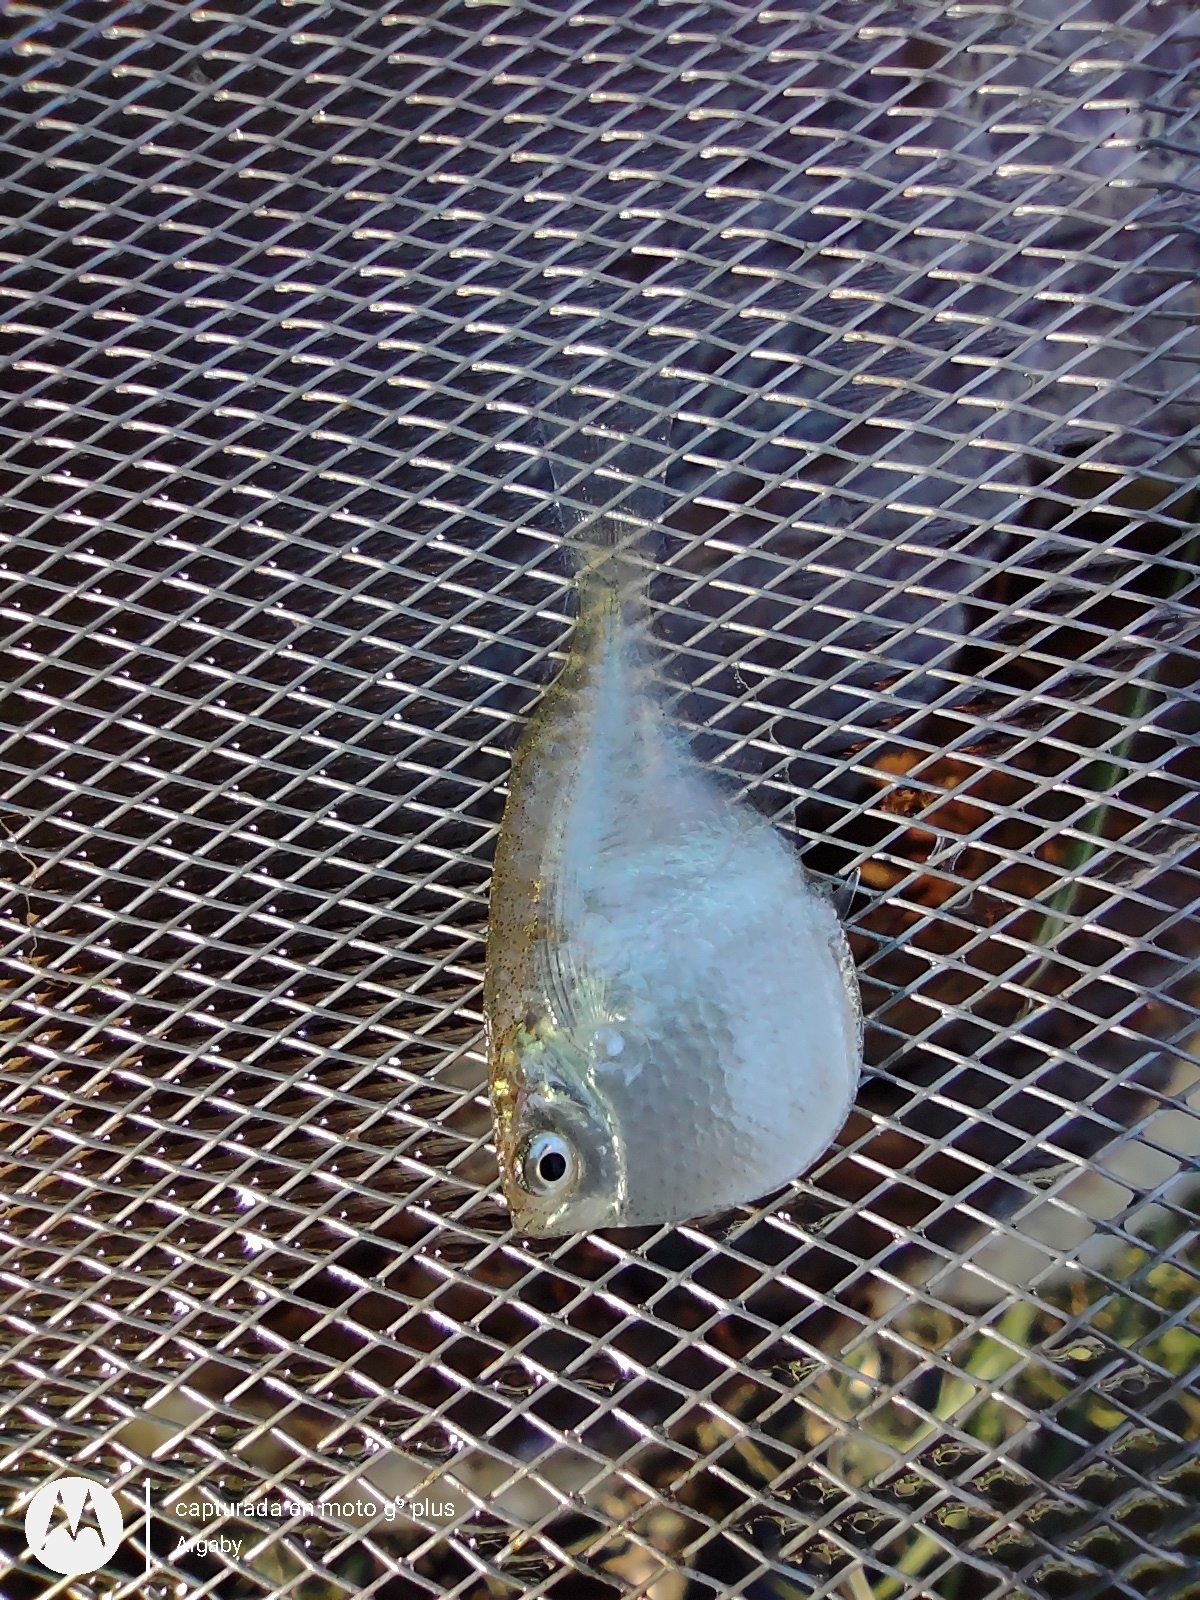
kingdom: Animalia
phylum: Chordata
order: Characiformes
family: Gasteropelecidae
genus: Thoracocharax
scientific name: Thoracocharax stellatus
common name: Hatchet tetra
